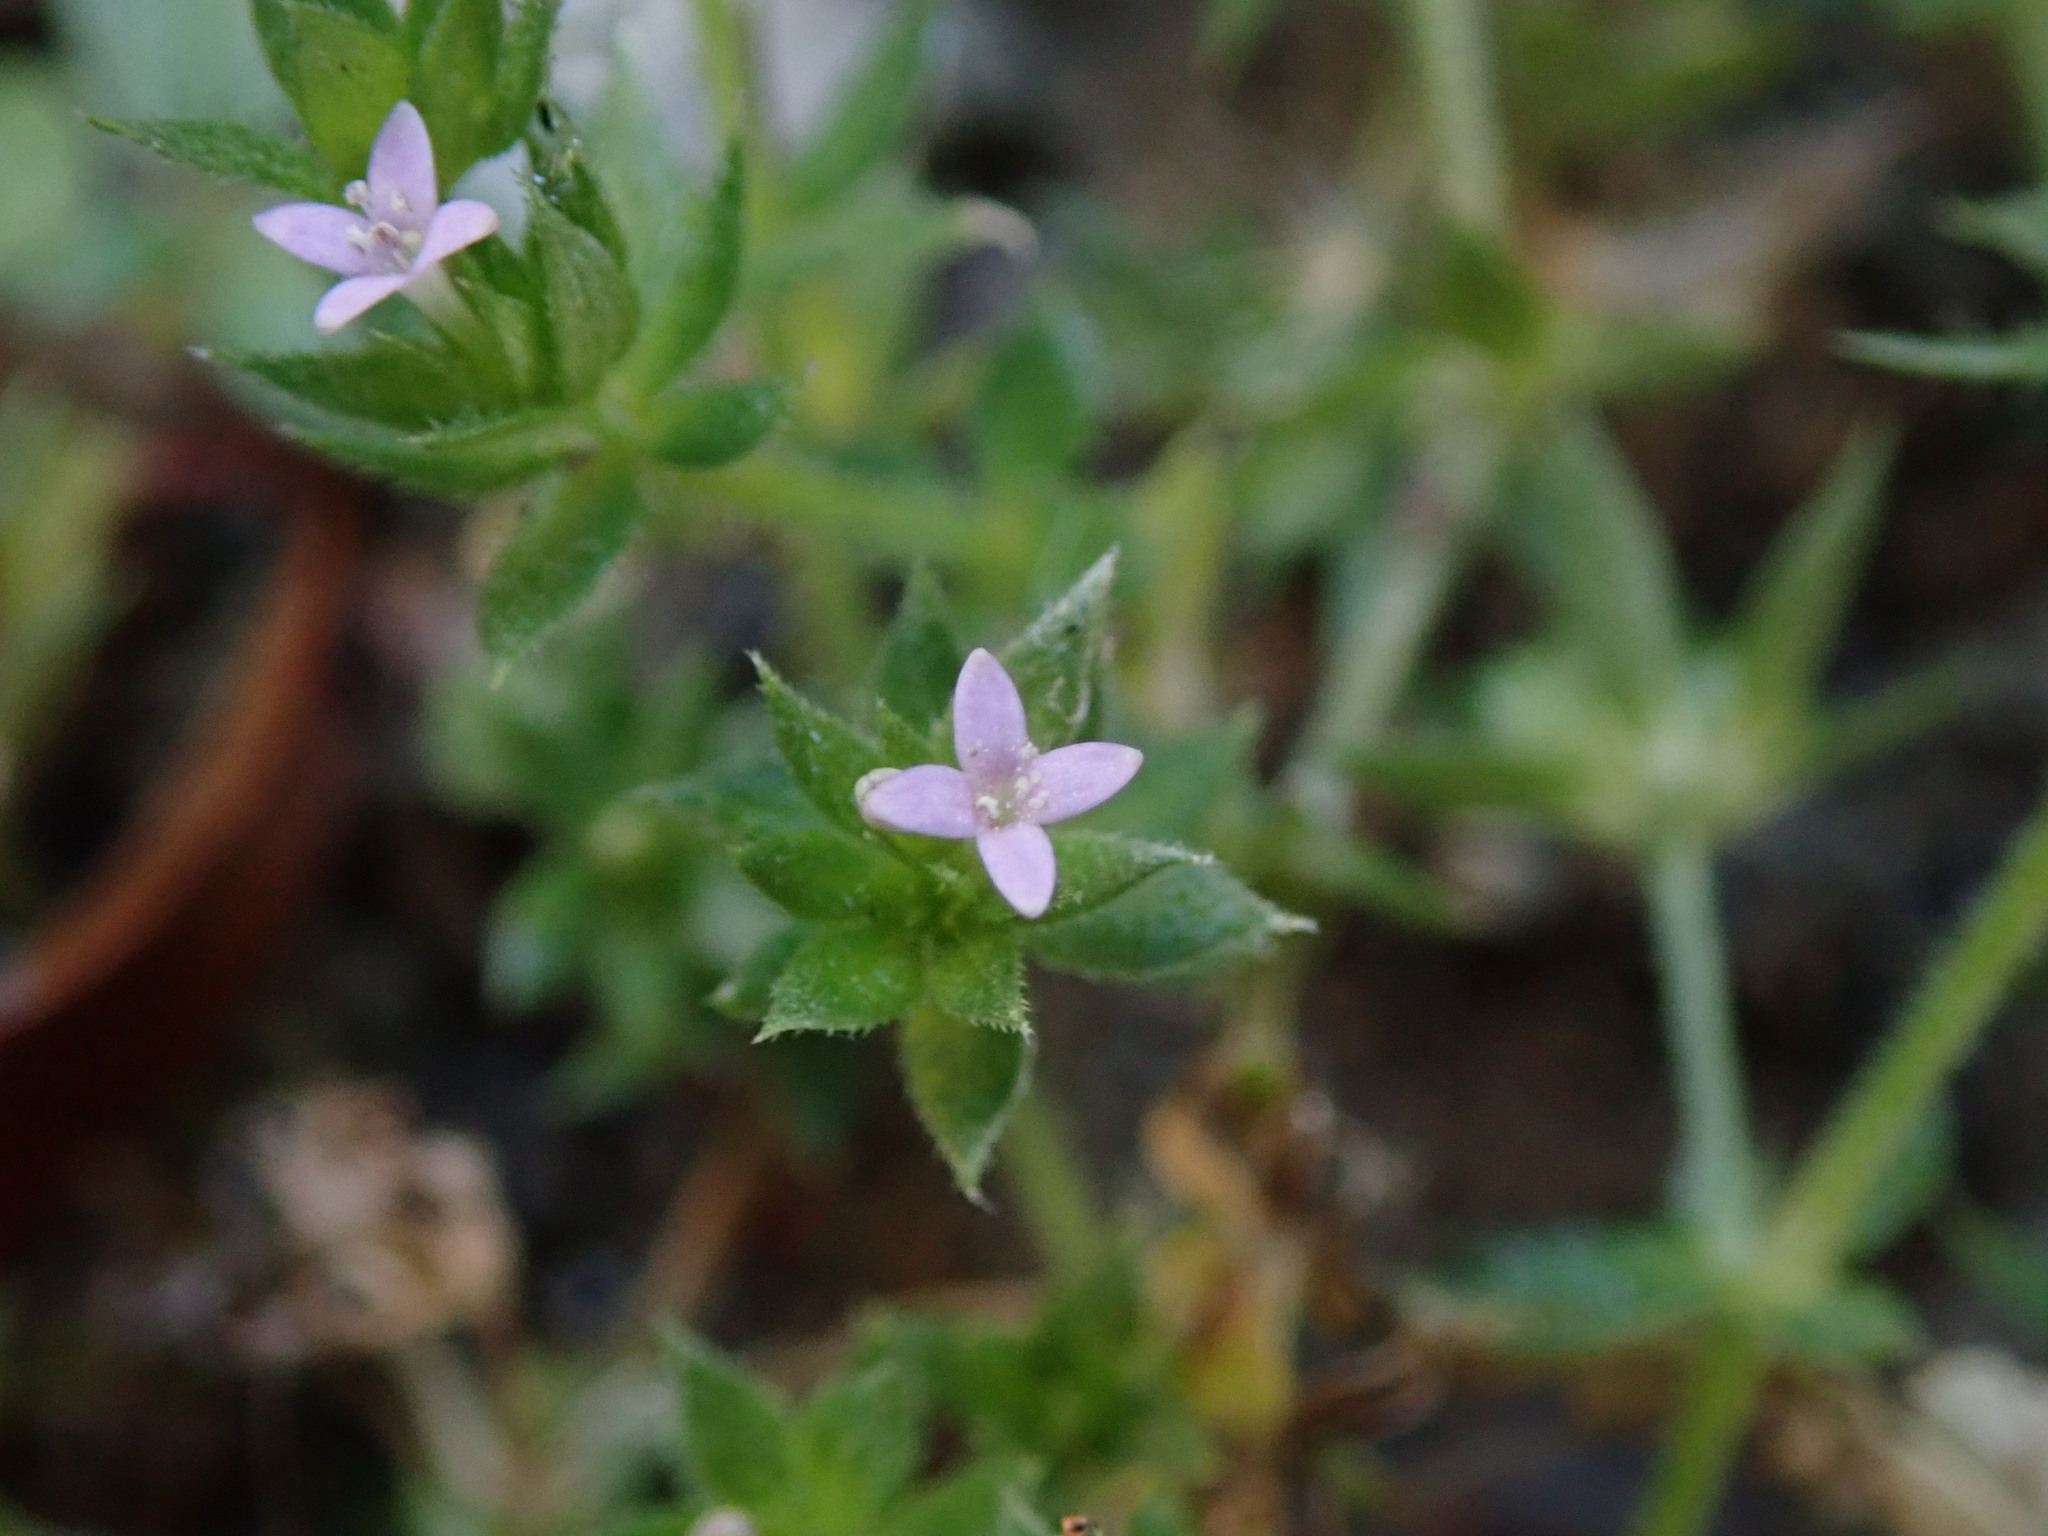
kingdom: Plantae
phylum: Tracheophyta
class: Magnoliopsida
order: Gentianales
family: Rubiaceae
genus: Sherardia
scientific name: Sherardia arvensis
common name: Field madder
